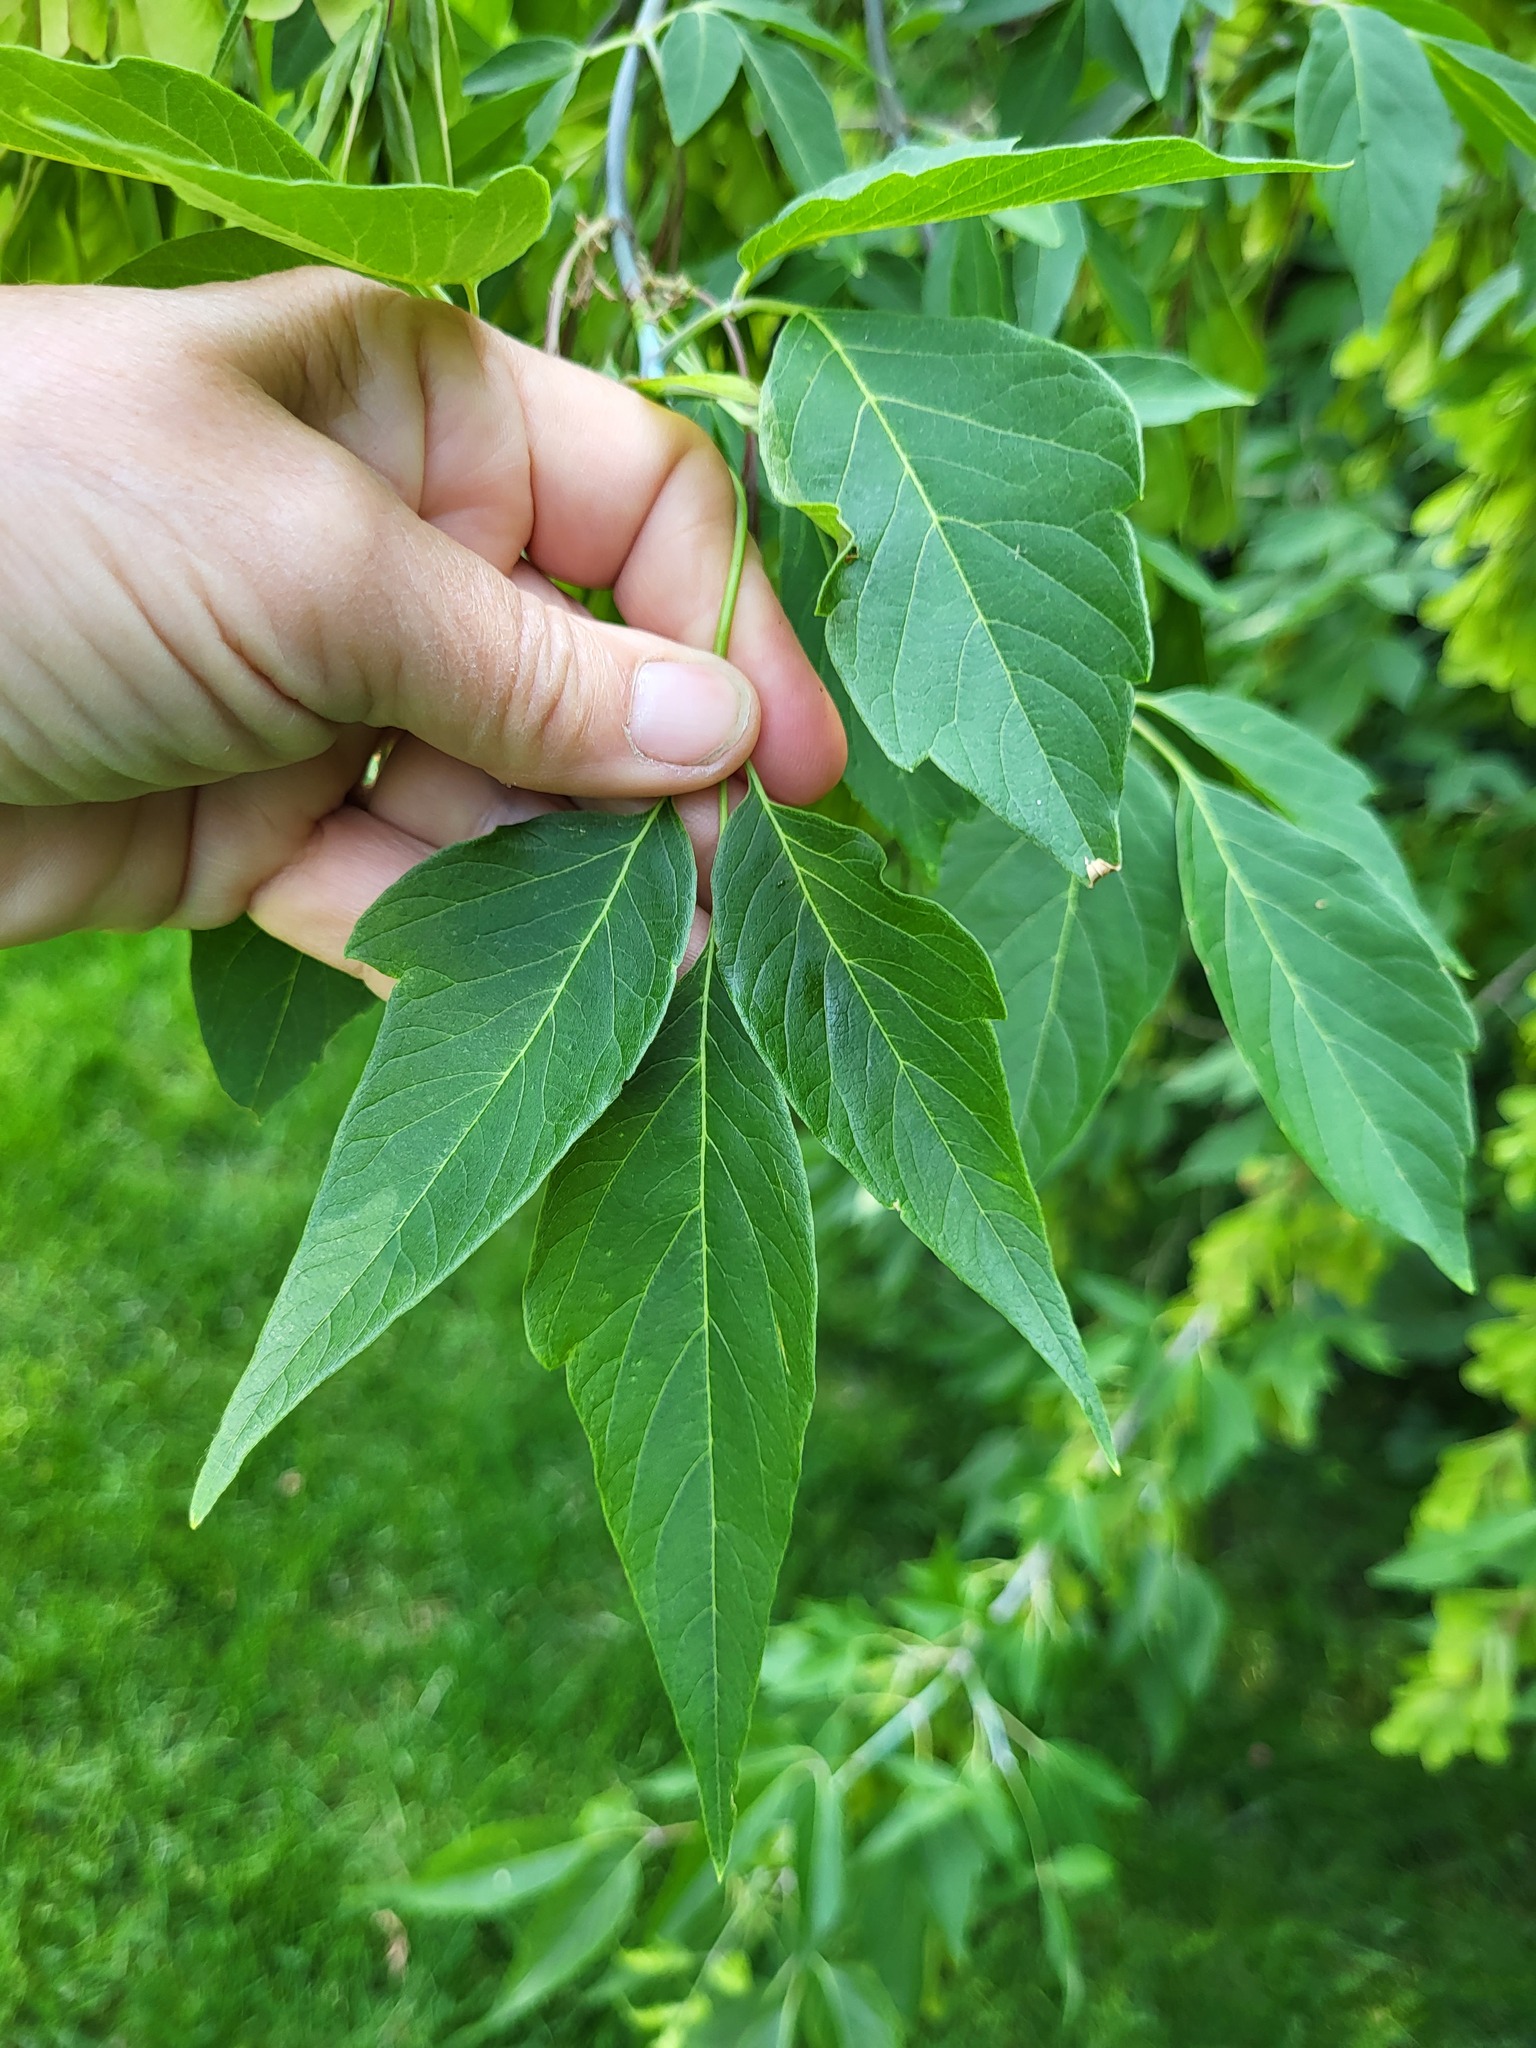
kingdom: Plantae
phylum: Tracheophyta
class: Magnoliopsida
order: Sapindales
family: Sapindaceae
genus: Acer
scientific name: Acer negundo
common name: Ashleaf maple
